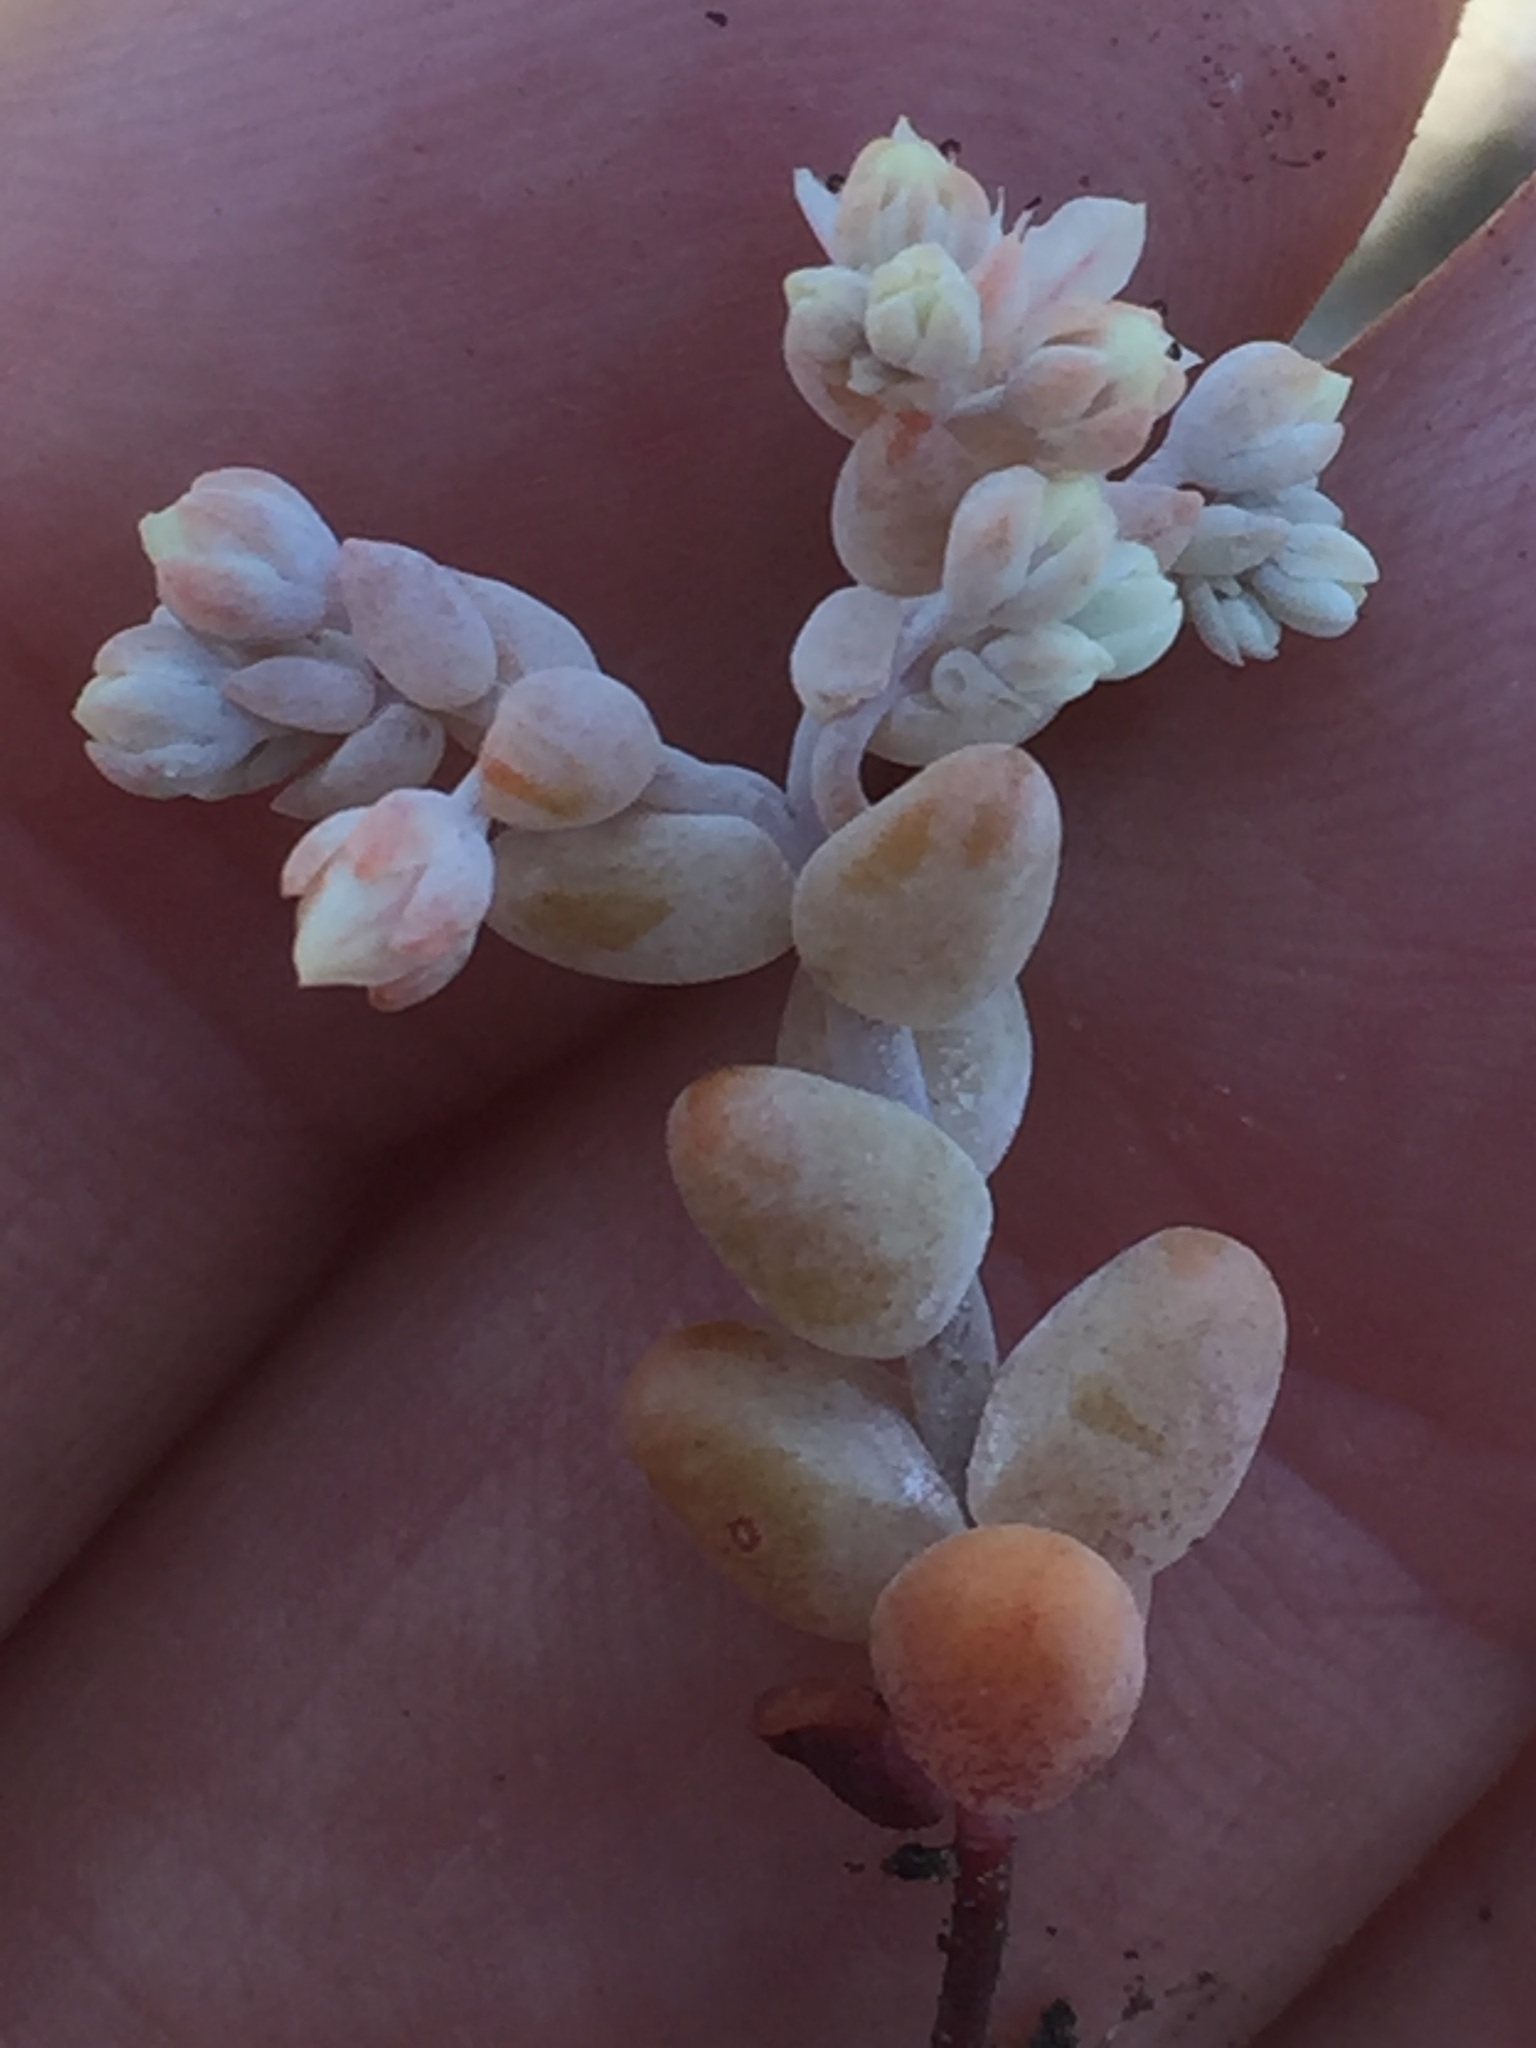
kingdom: Plantae
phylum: Tracheophyta
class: Magnoliopsida
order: Saxifragales
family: Crassulaceae
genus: Sedum
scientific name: Sedum pedicellatum
